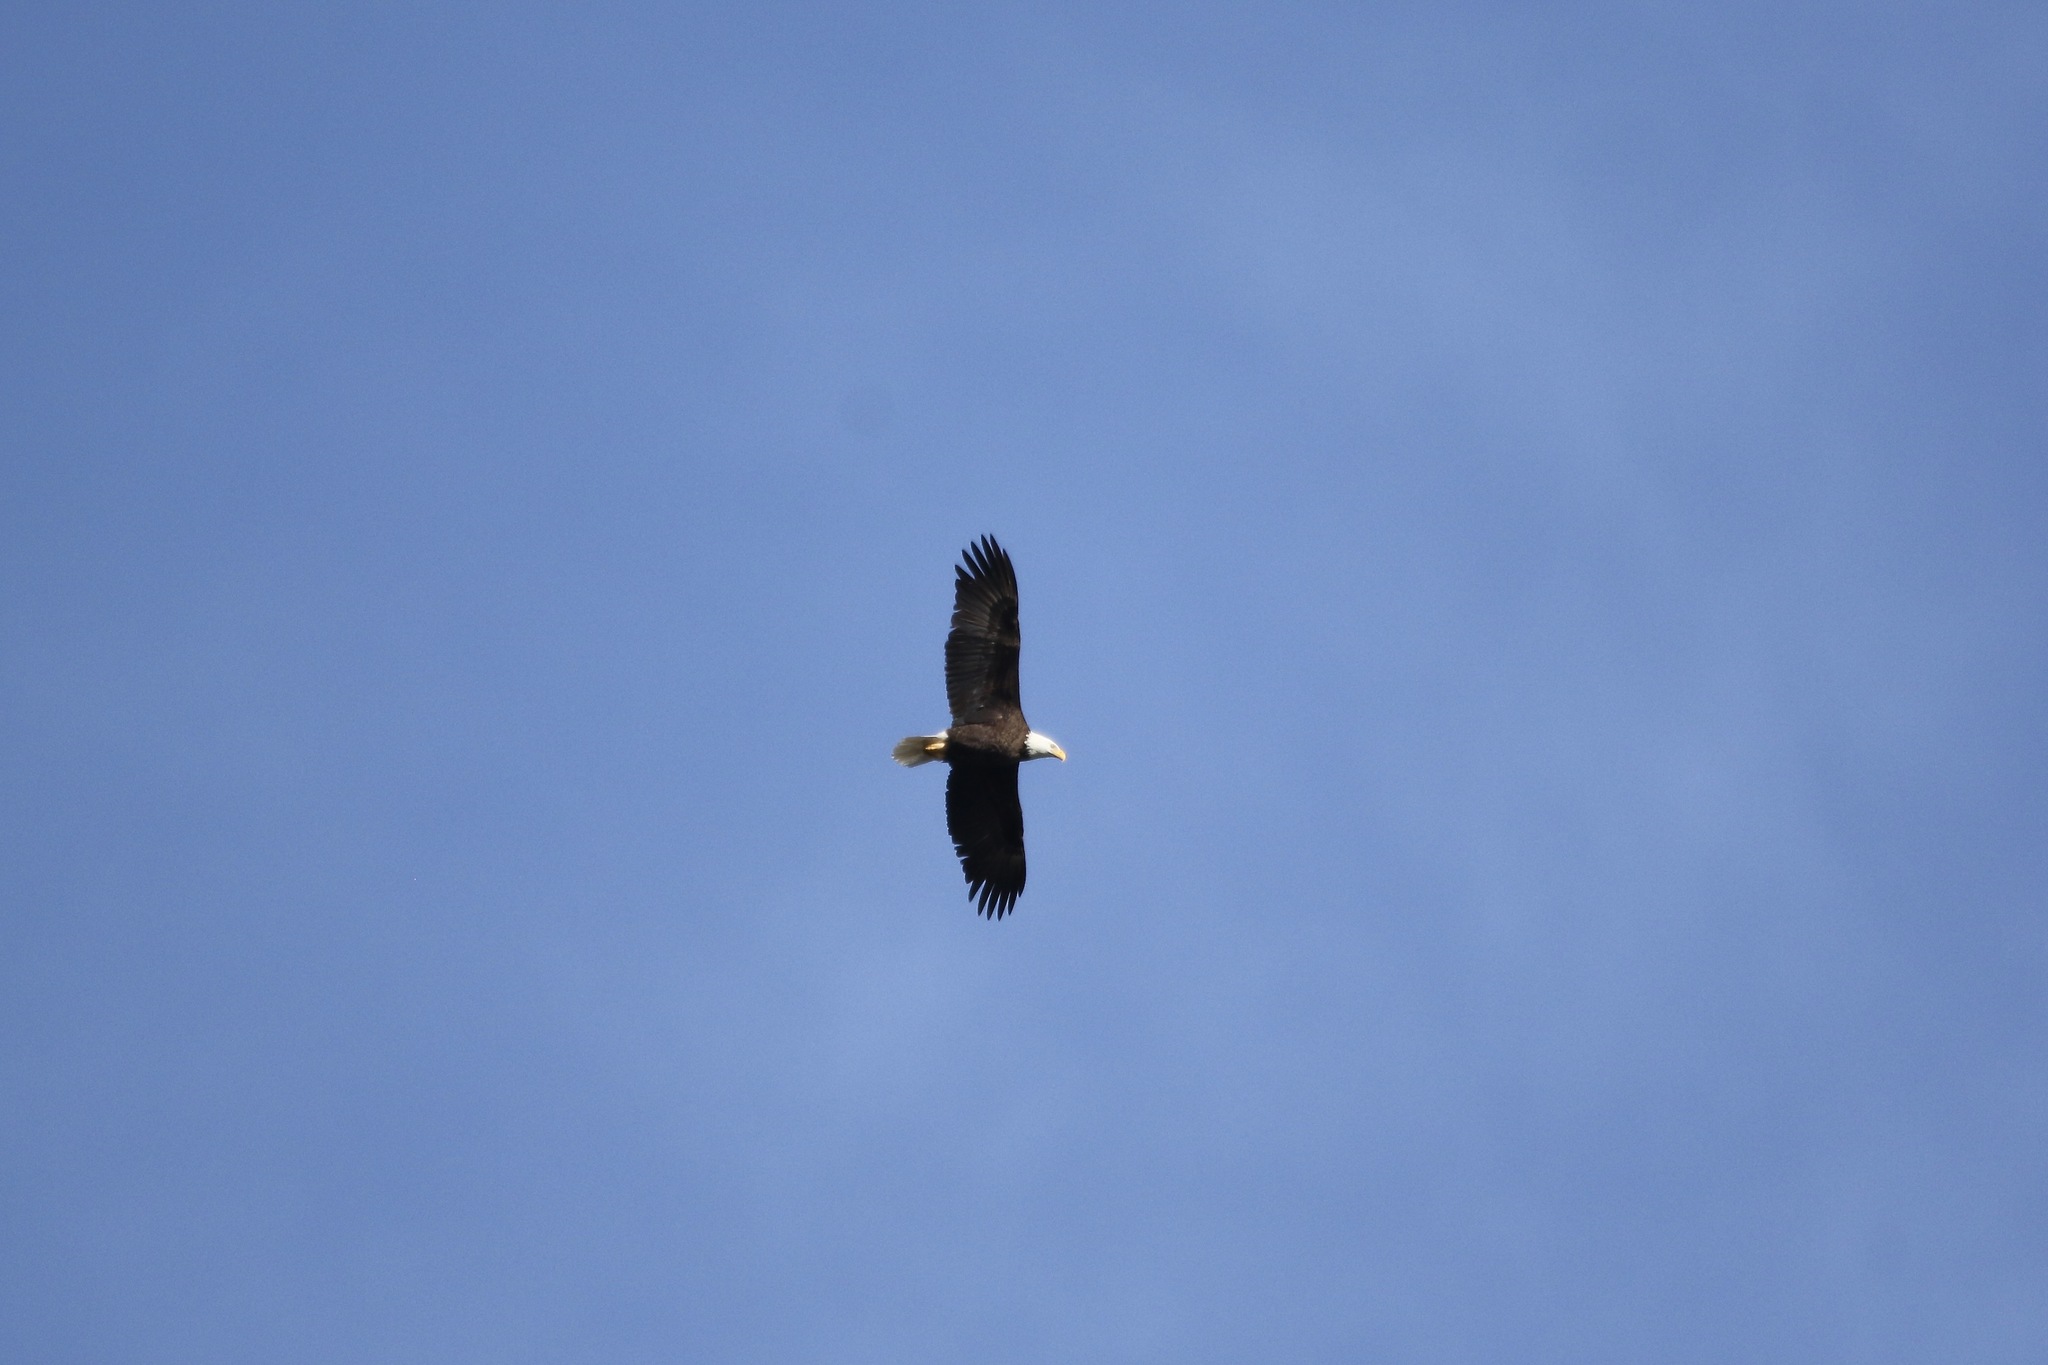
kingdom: Animalia
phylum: Chordata
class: Aves
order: Accipitriformes
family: Accipitridae
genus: Haliaeetus
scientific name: Haliaeetus leucocephalus
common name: Bald eagle
